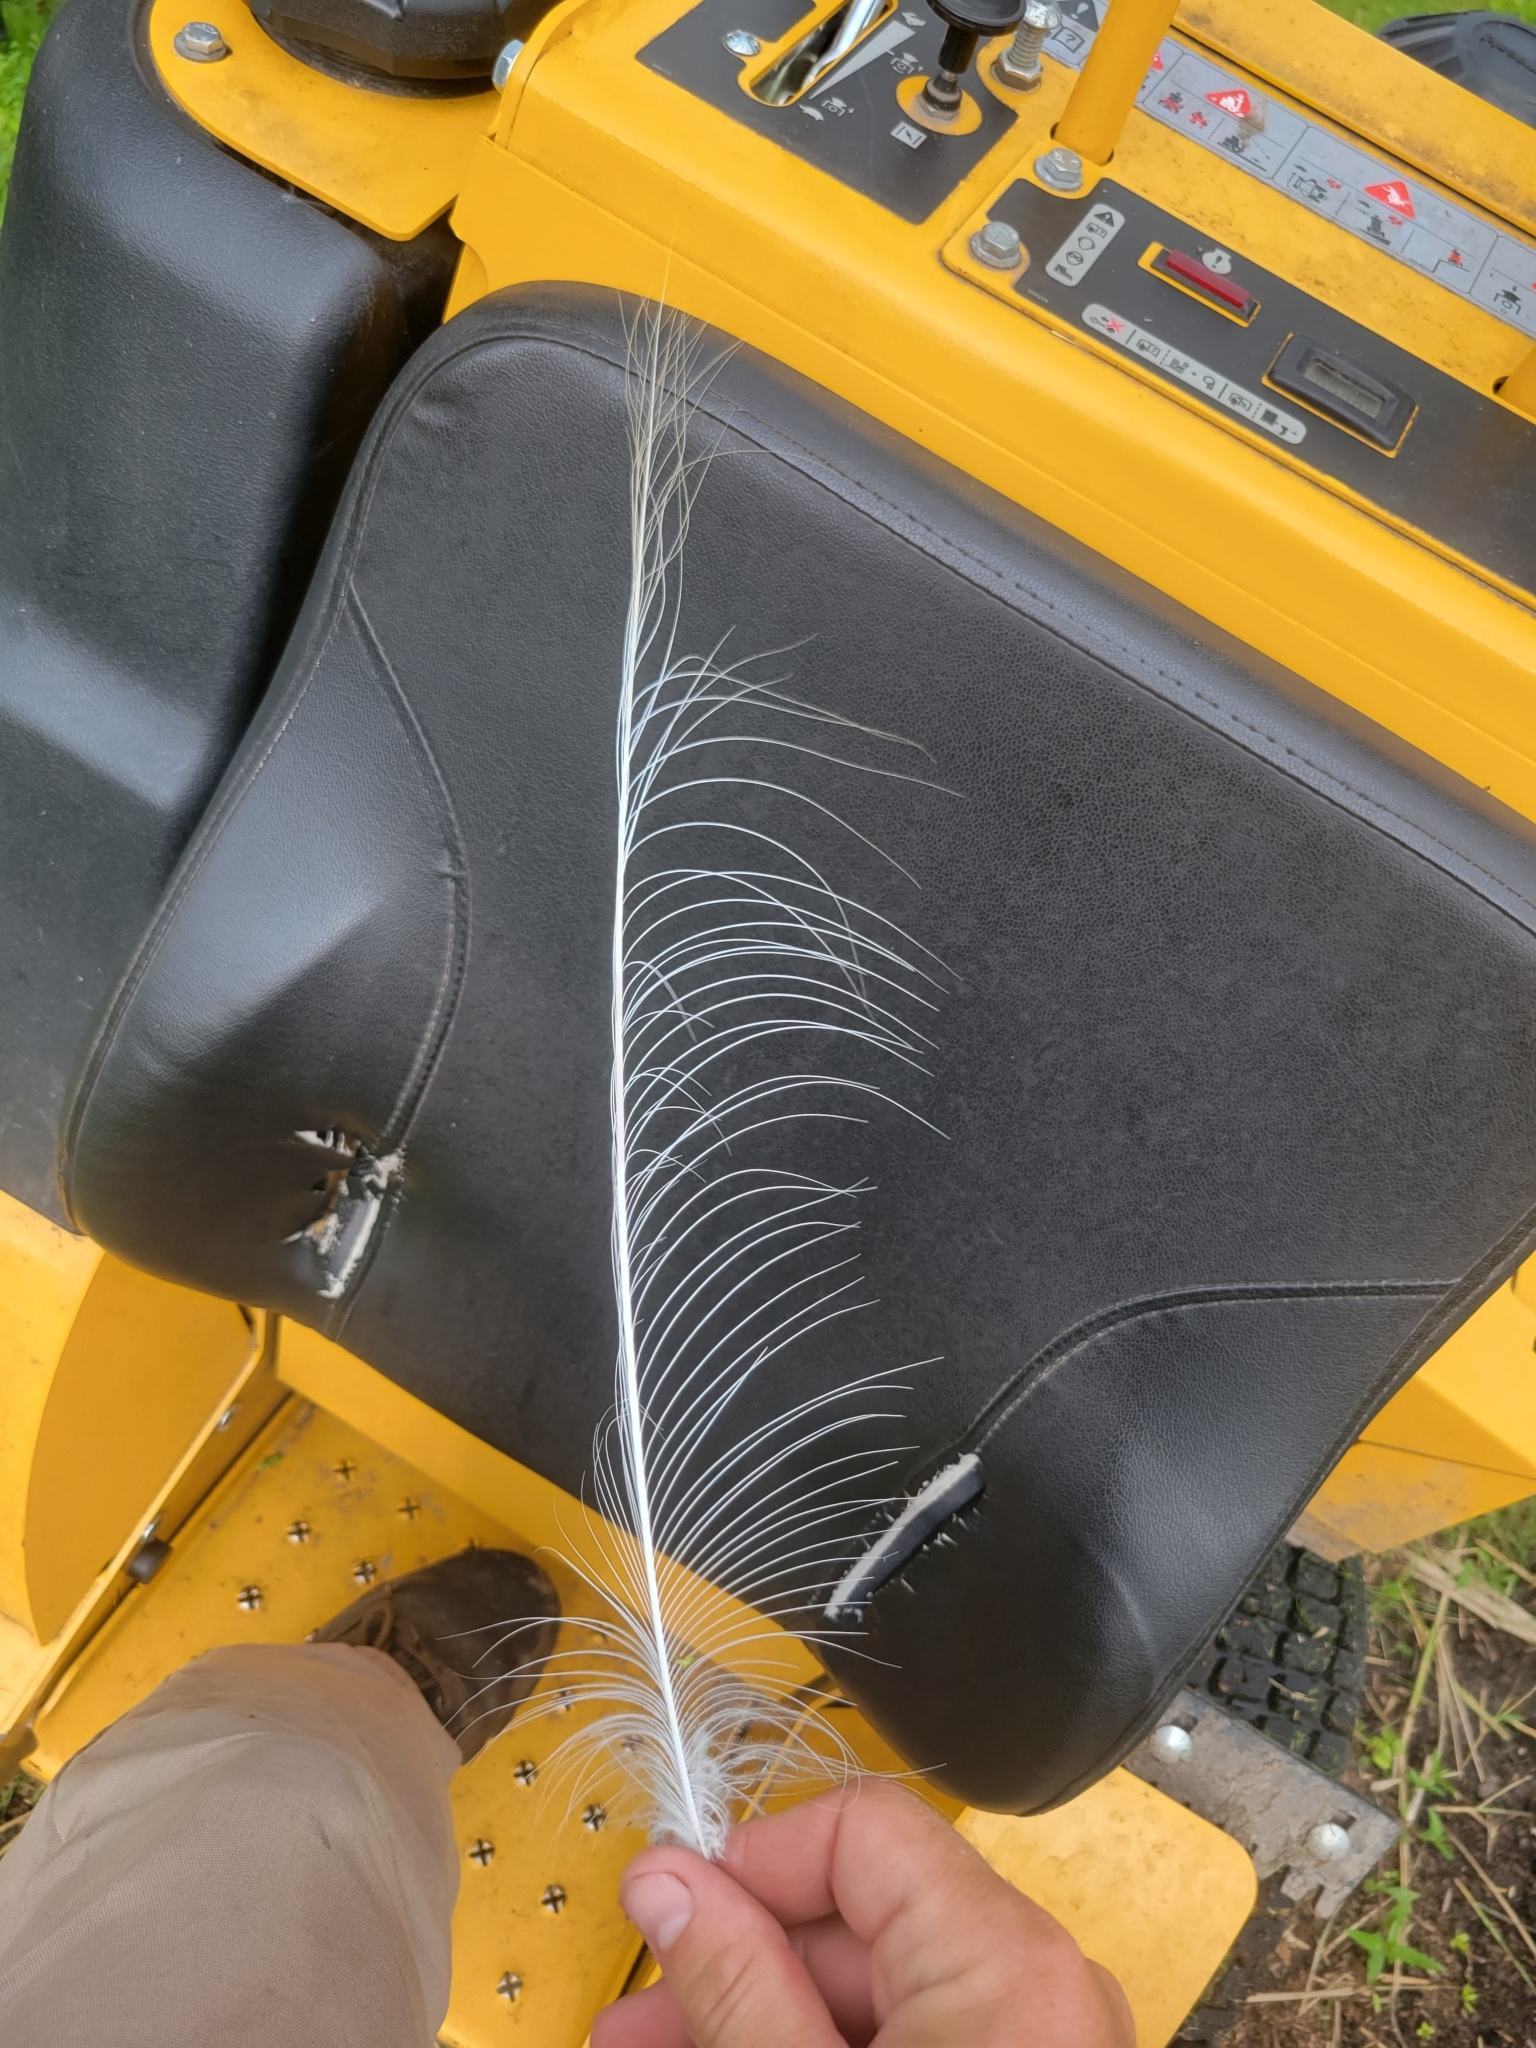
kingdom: Animalia
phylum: Chordata
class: Aves
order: Pelecaniformes
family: Ardeidae
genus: Ardea
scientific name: Ardea alba
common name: Great egret
